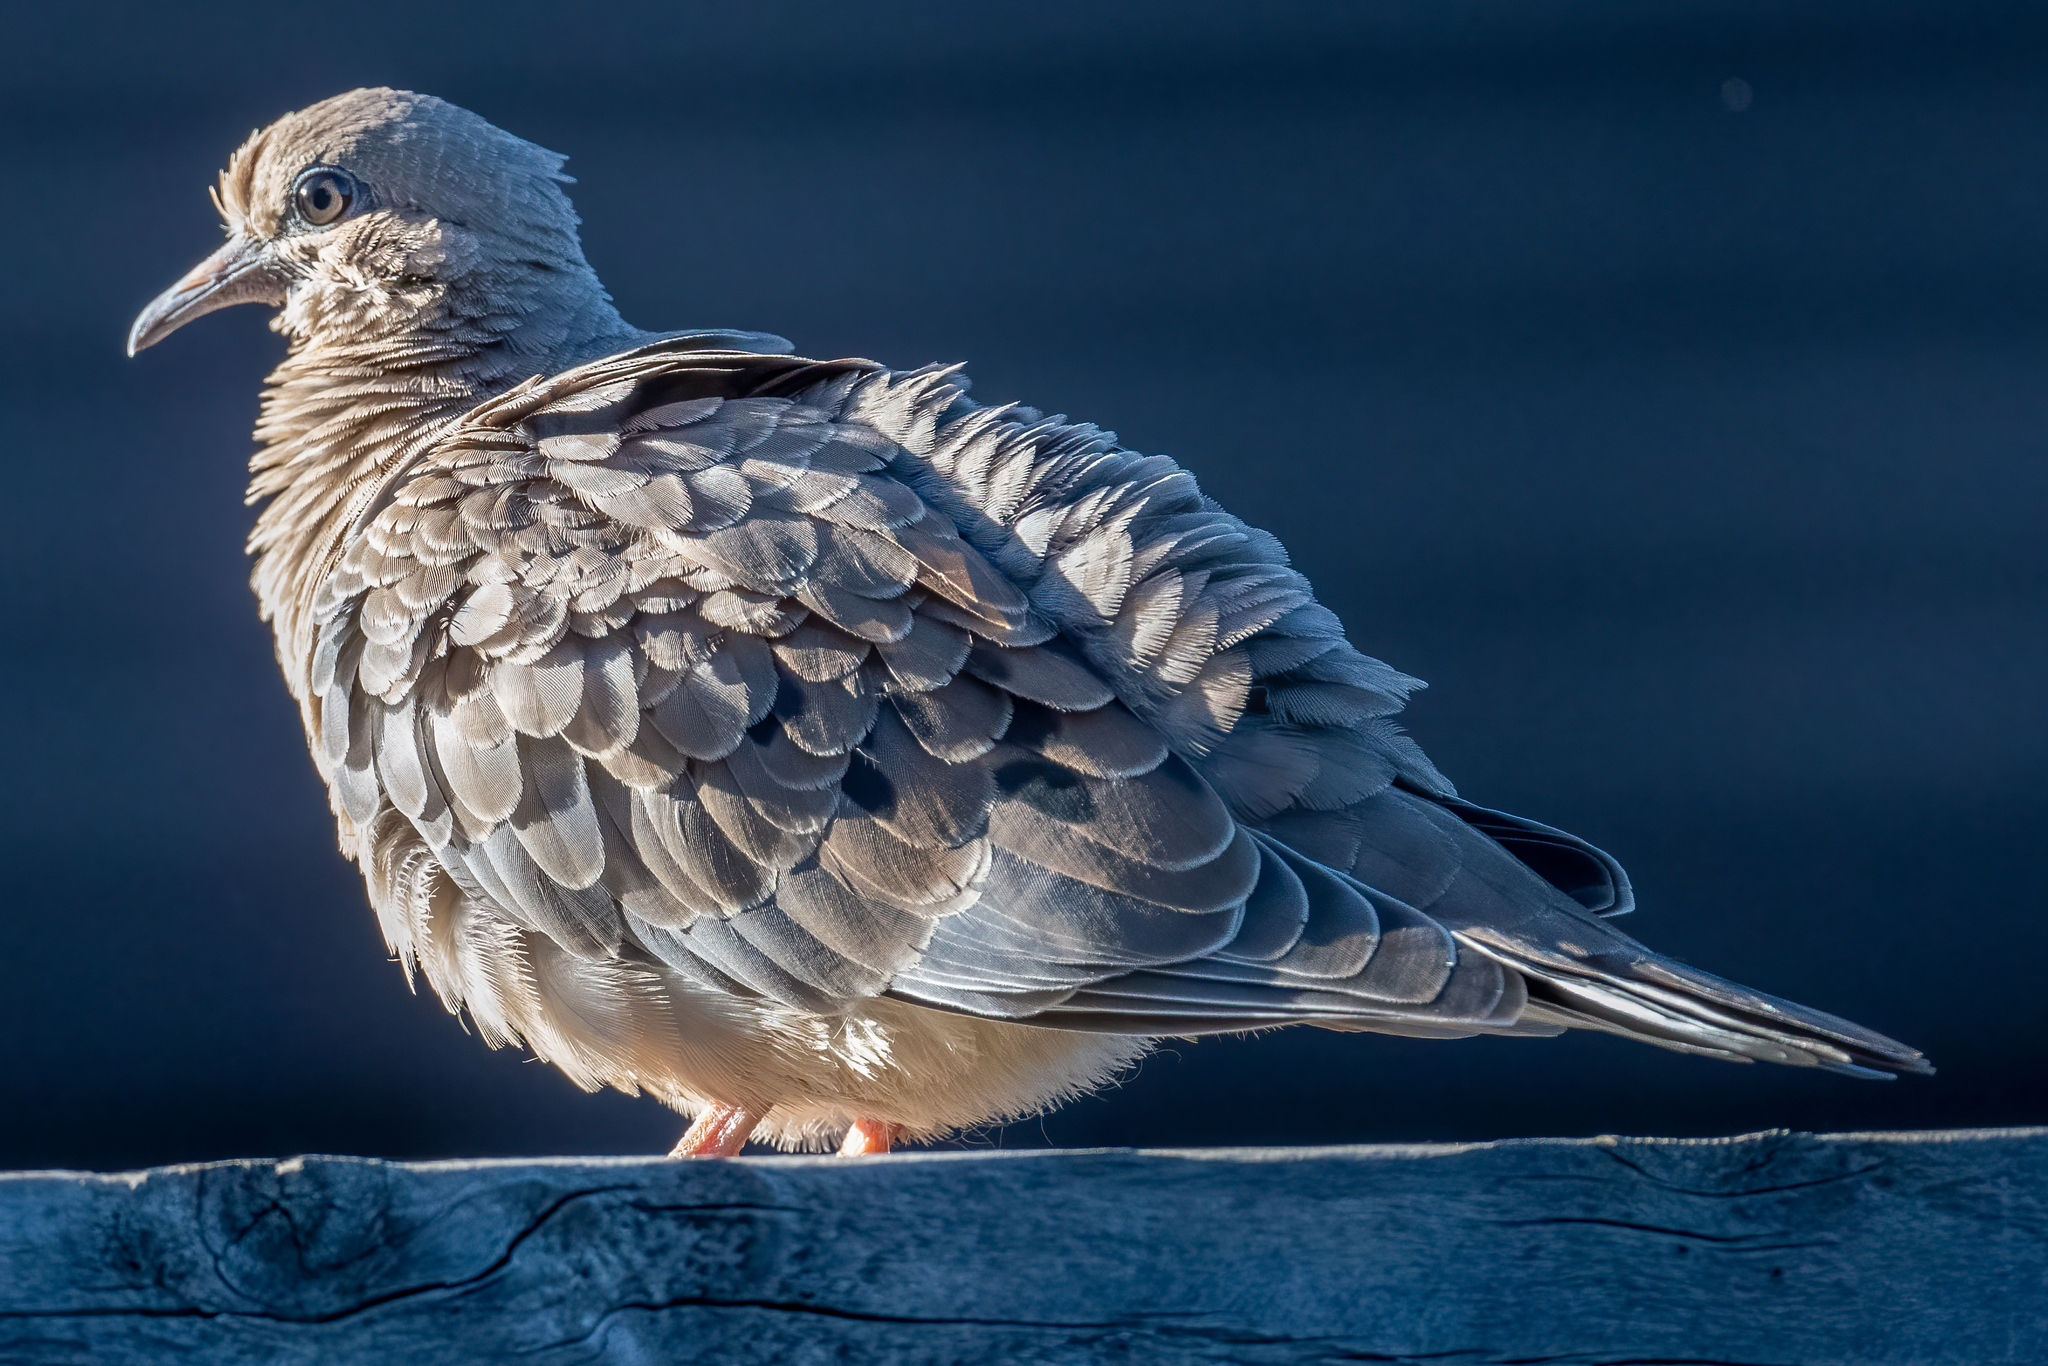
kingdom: Animalia
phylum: Chordata
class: Aves
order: Columbiformes
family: Columbidae
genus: Zenaida
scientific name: Zenaida macroura
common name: Mourning dove
